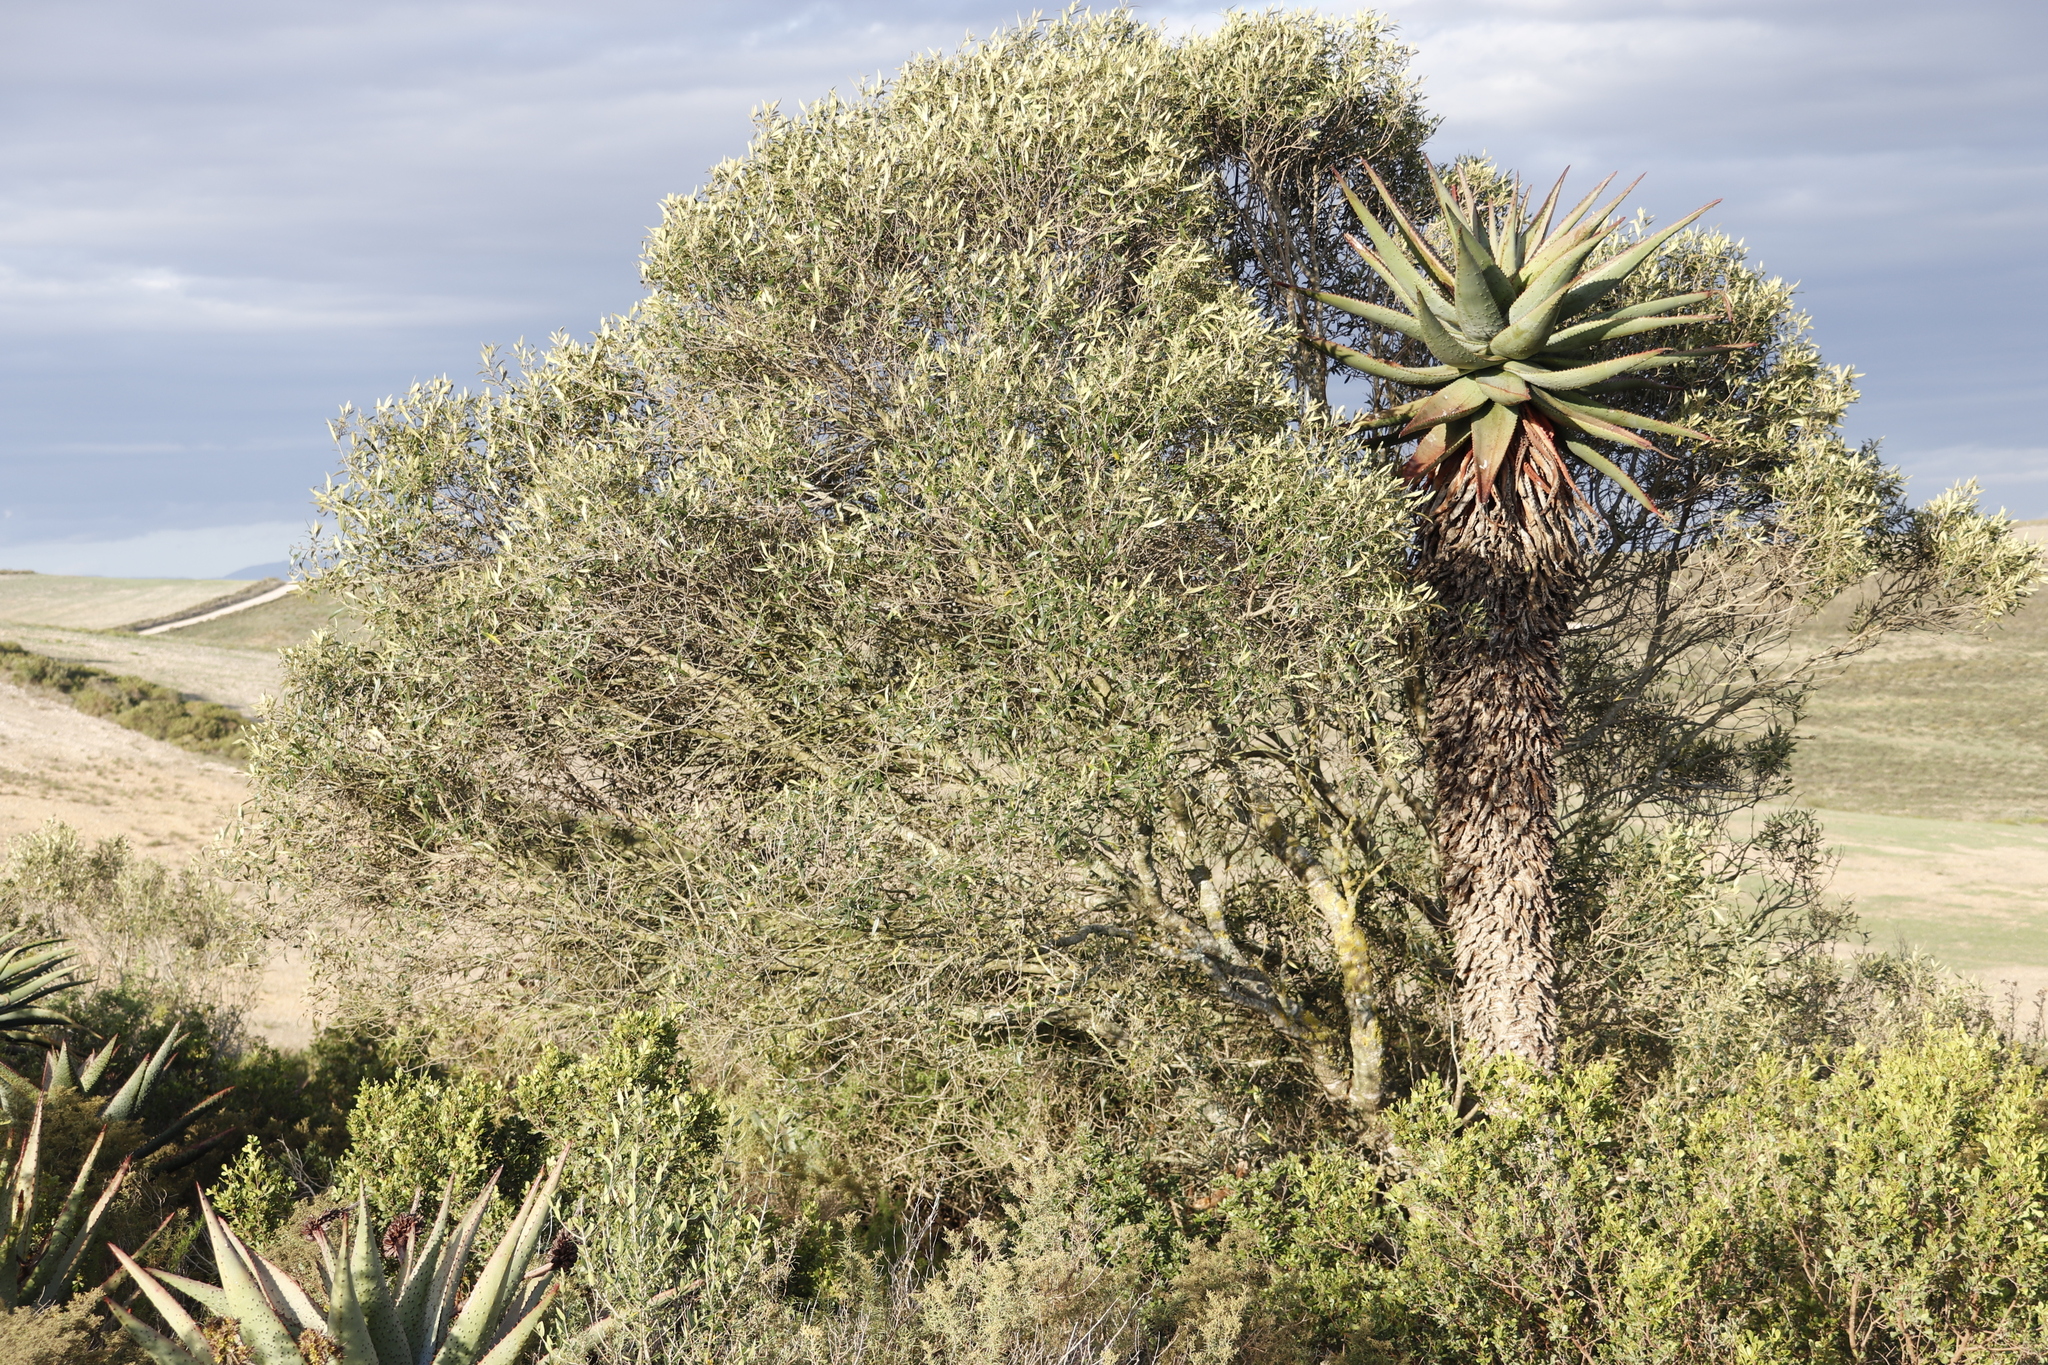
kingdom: Plantae
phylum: Tracheophyta
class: Magnoliopsida
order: Lamiales
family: Oleaceae
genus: Olea
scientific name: Olea europaea
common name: Olive
